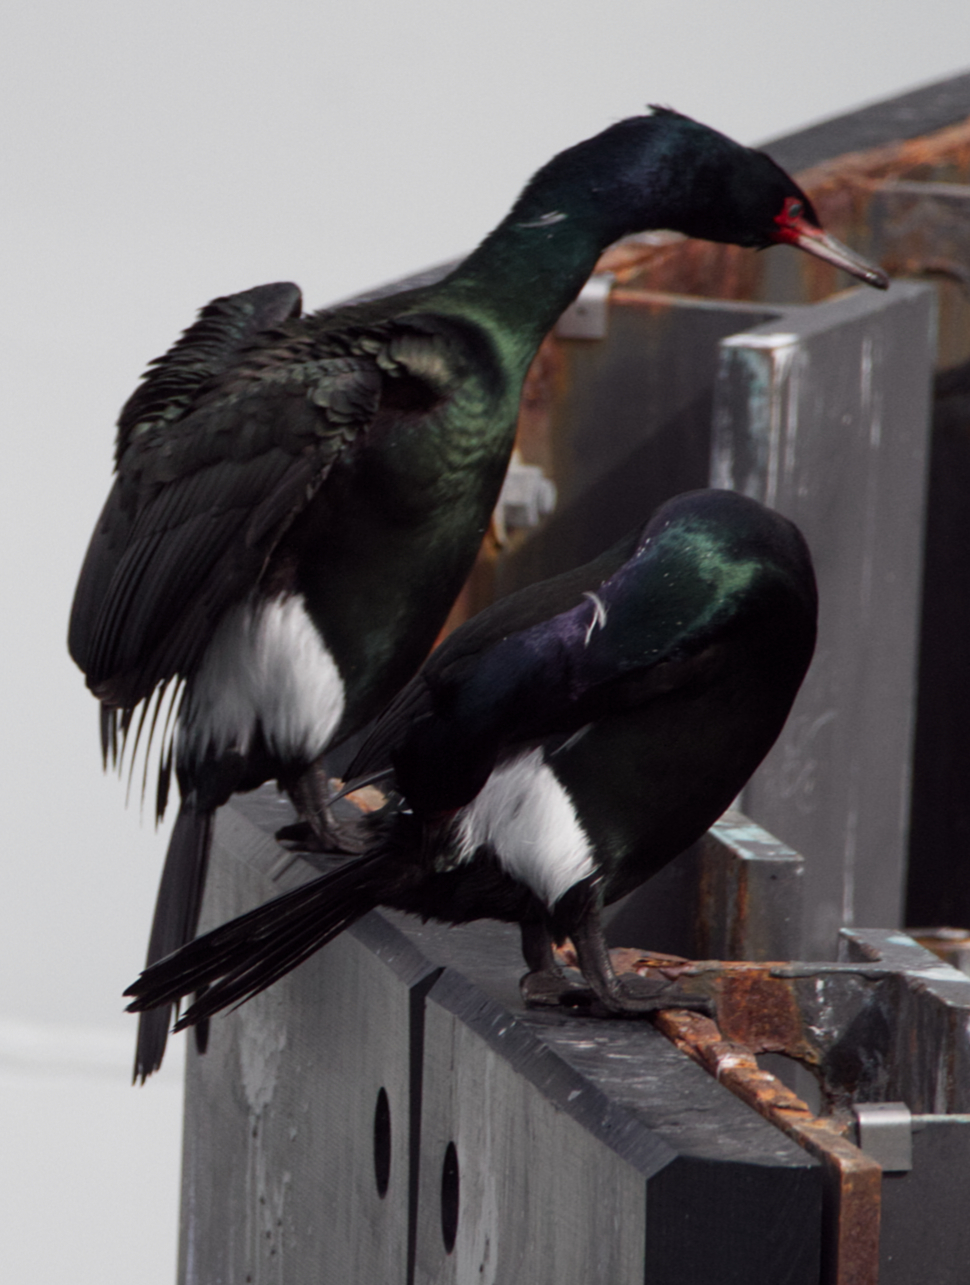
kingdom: Animalia
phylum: Chordata
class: Aves
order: Suliformes
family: Phalacrocoracidae
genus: Phalacrocorax
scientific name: Phalacrocorax pelagicus
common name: Pelagic cormorant
